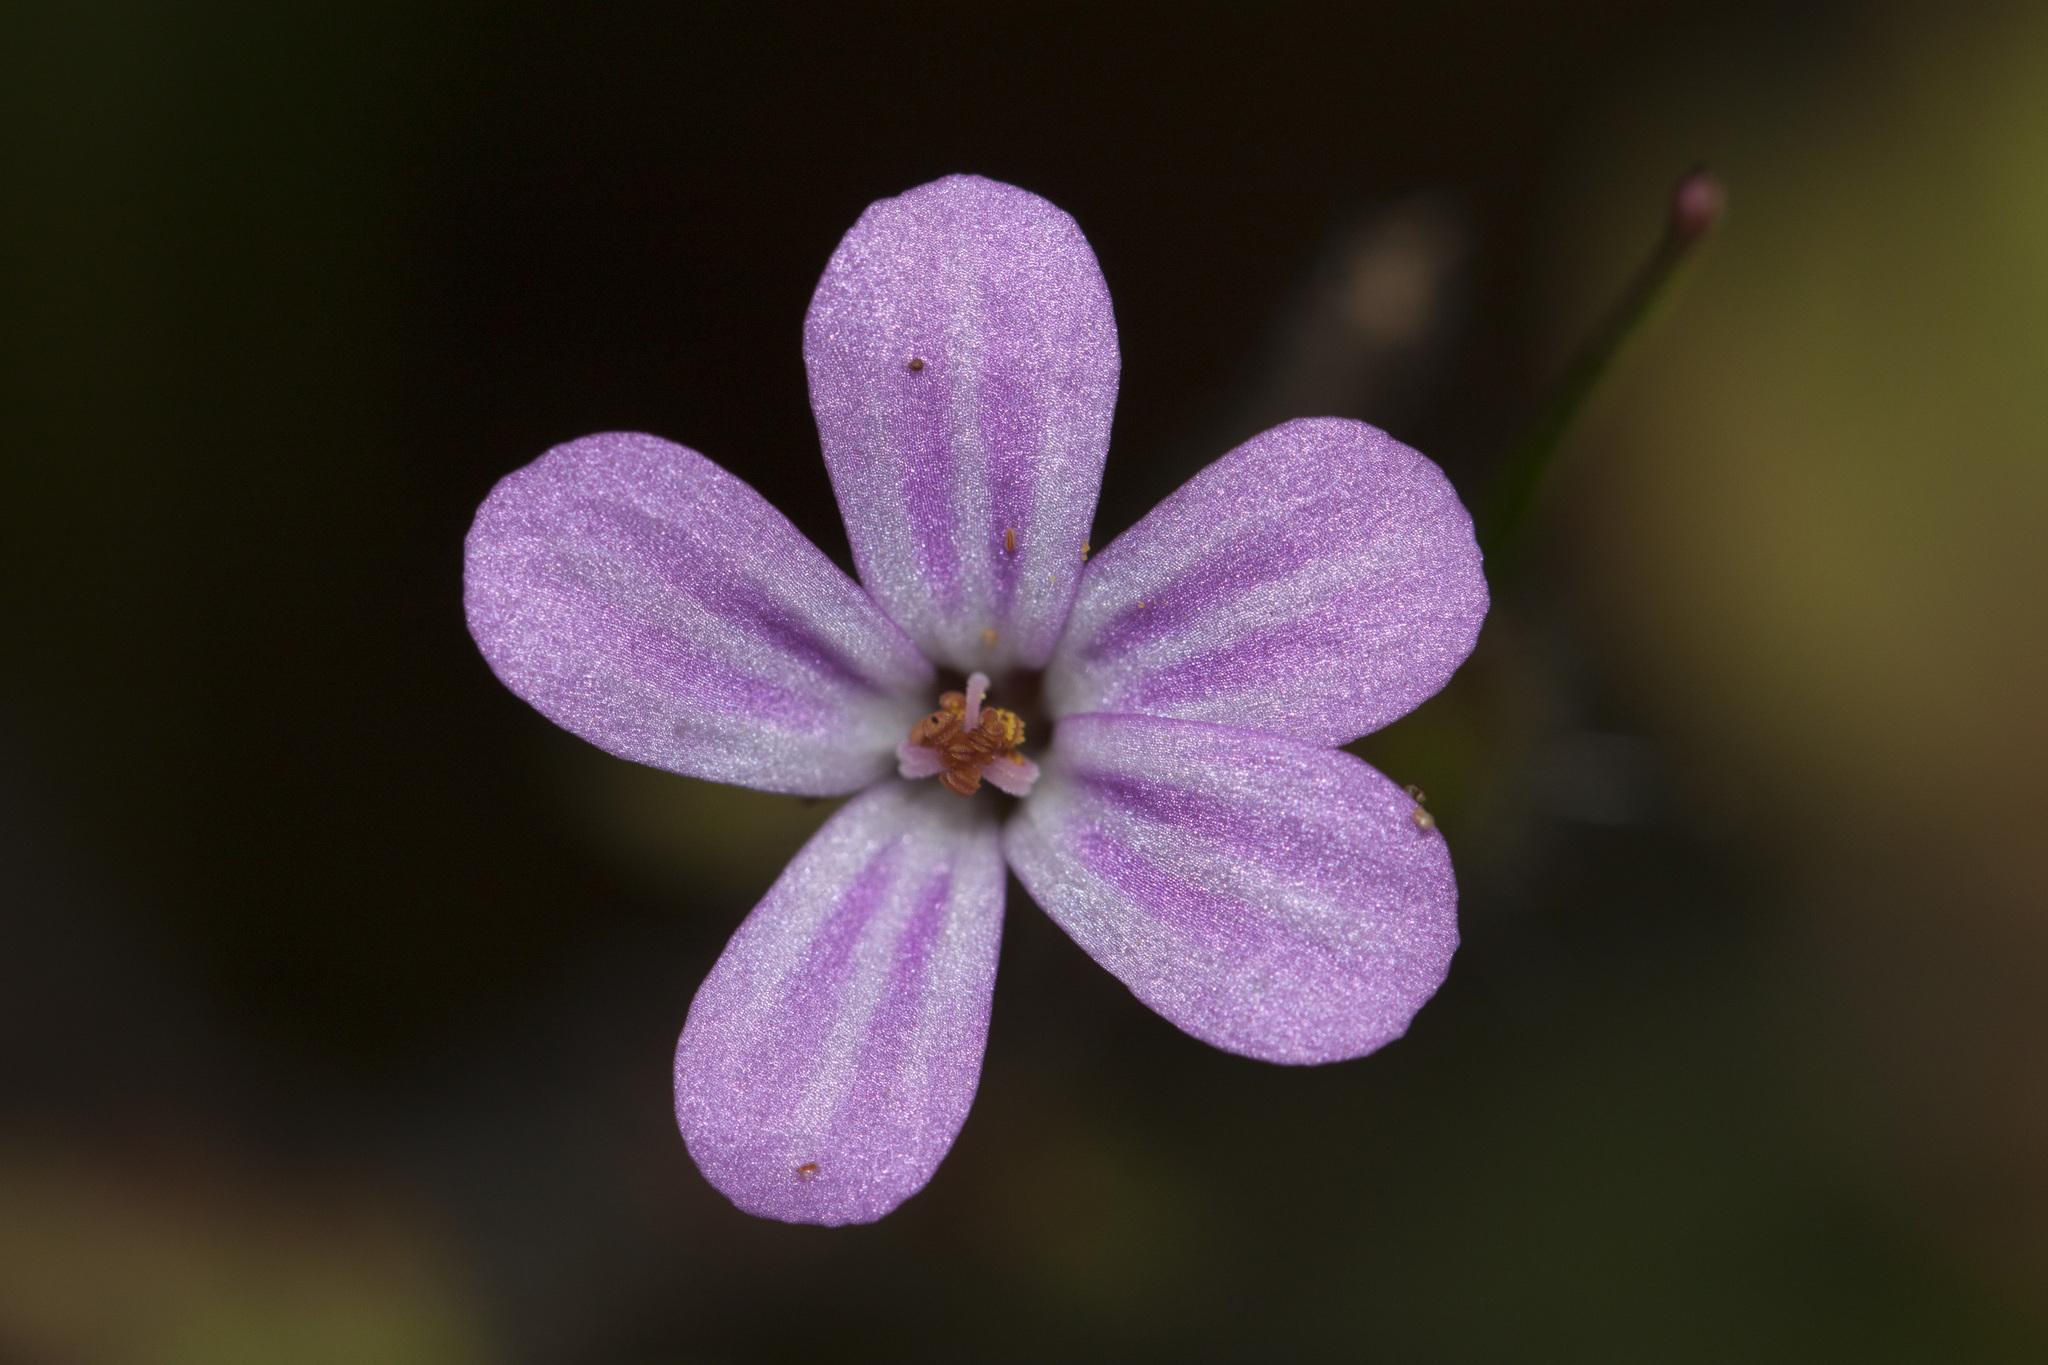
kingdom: Plantae
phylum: Tracheophyta
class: Magnoliopsida
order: Geraniales
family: Geraniaceae
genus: Geranium
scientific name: Geranium robertianum
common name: Herb-robert
